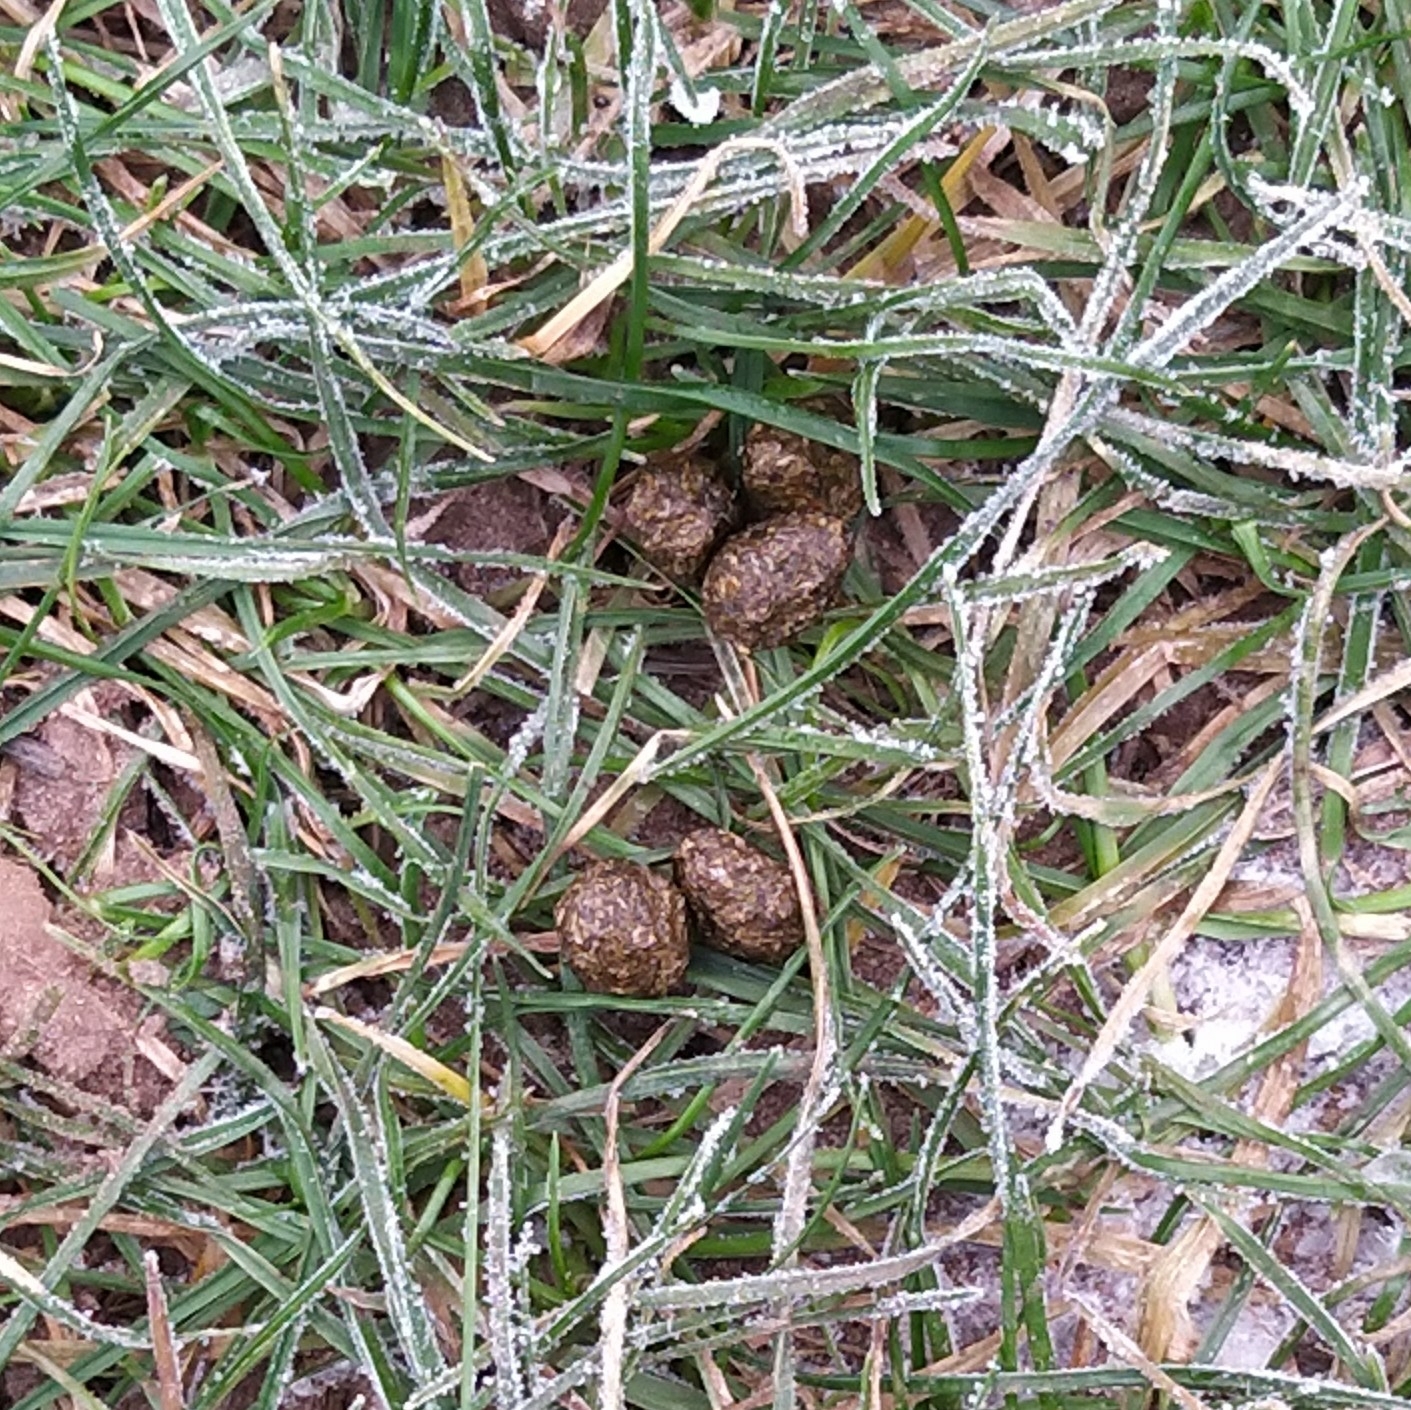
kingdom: Animalia
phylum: Chordata
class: Mammalia
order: Lagomorpha
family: Leporidae
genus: Lepus
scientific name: Lepus europaeus
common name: European hare
